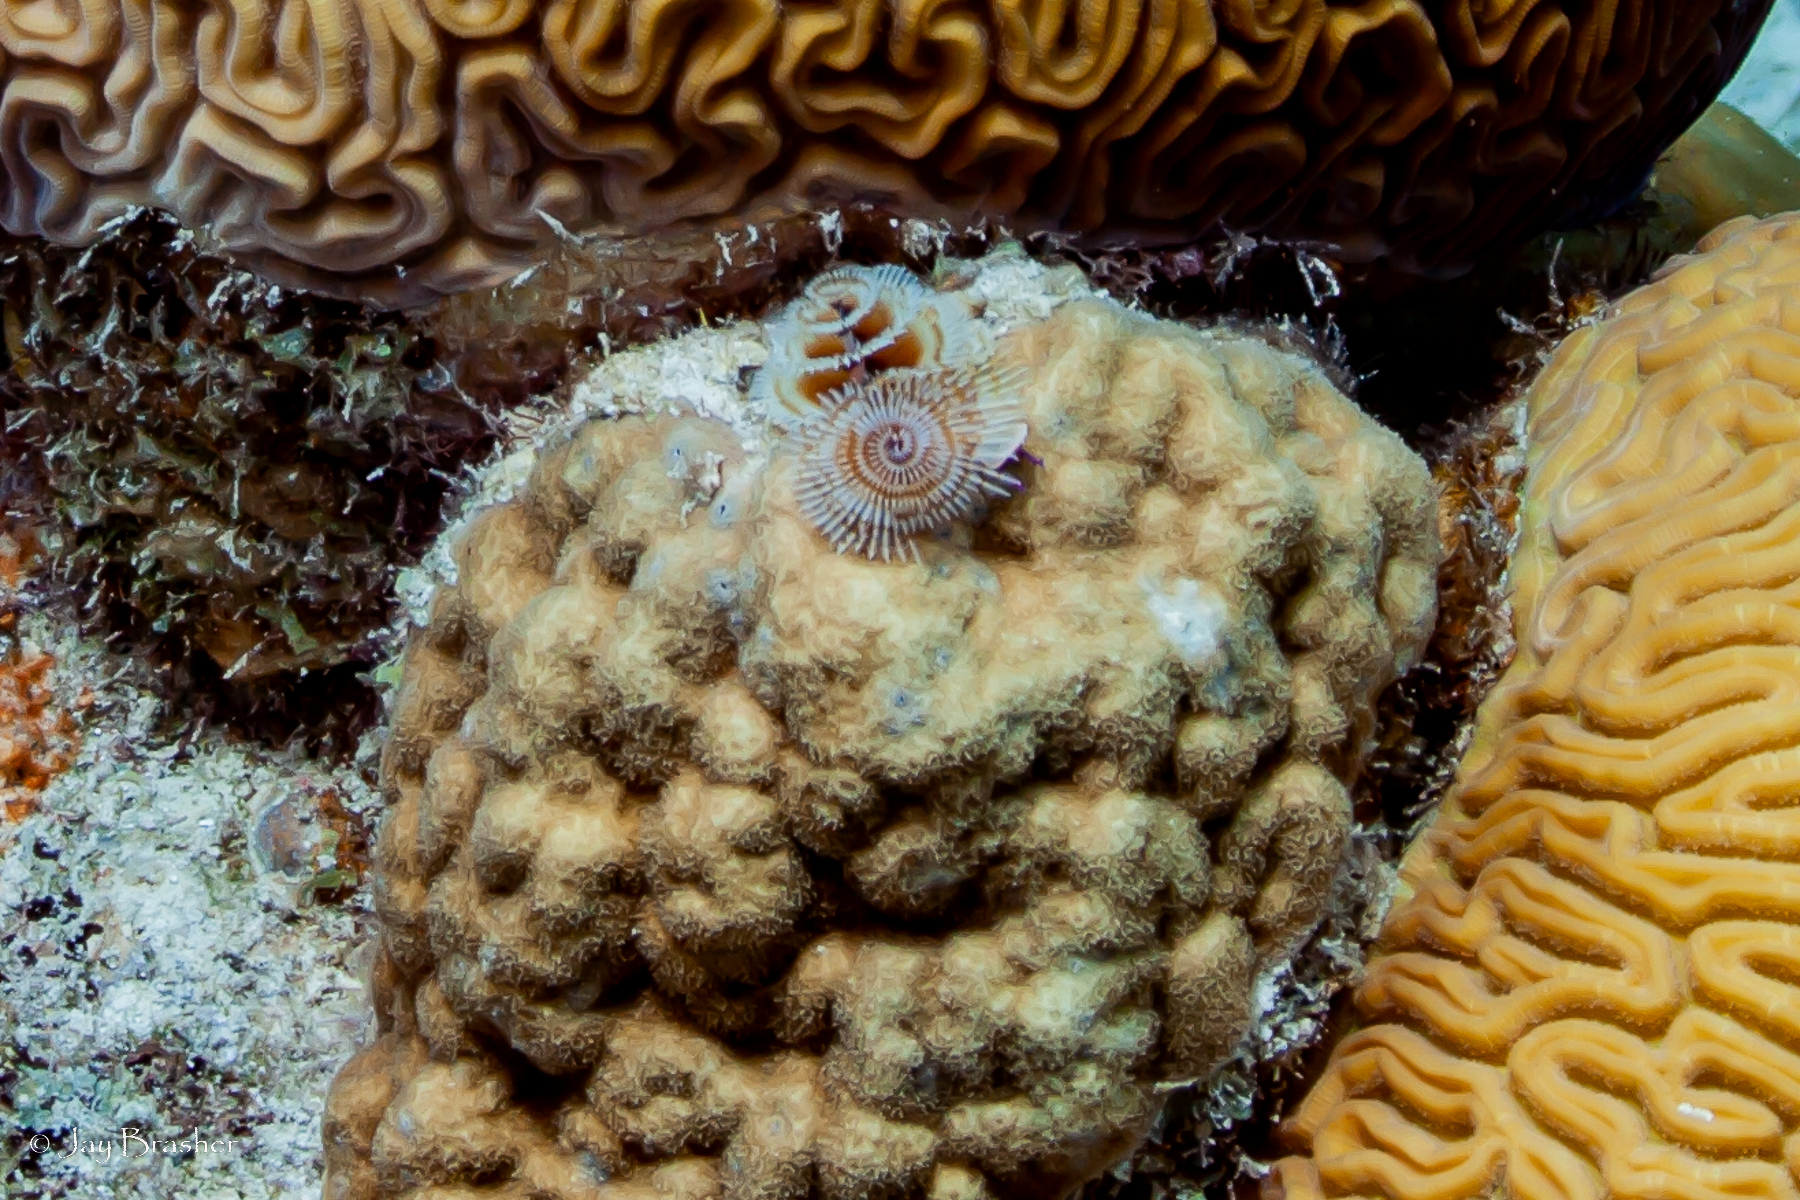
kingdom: Animalia
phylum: Annelida
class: Polychaeta
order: Sabellida
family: Serpulidae
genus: Spirobranchus
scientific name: Spirobranchus giganteus
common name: Christmas tree worm
